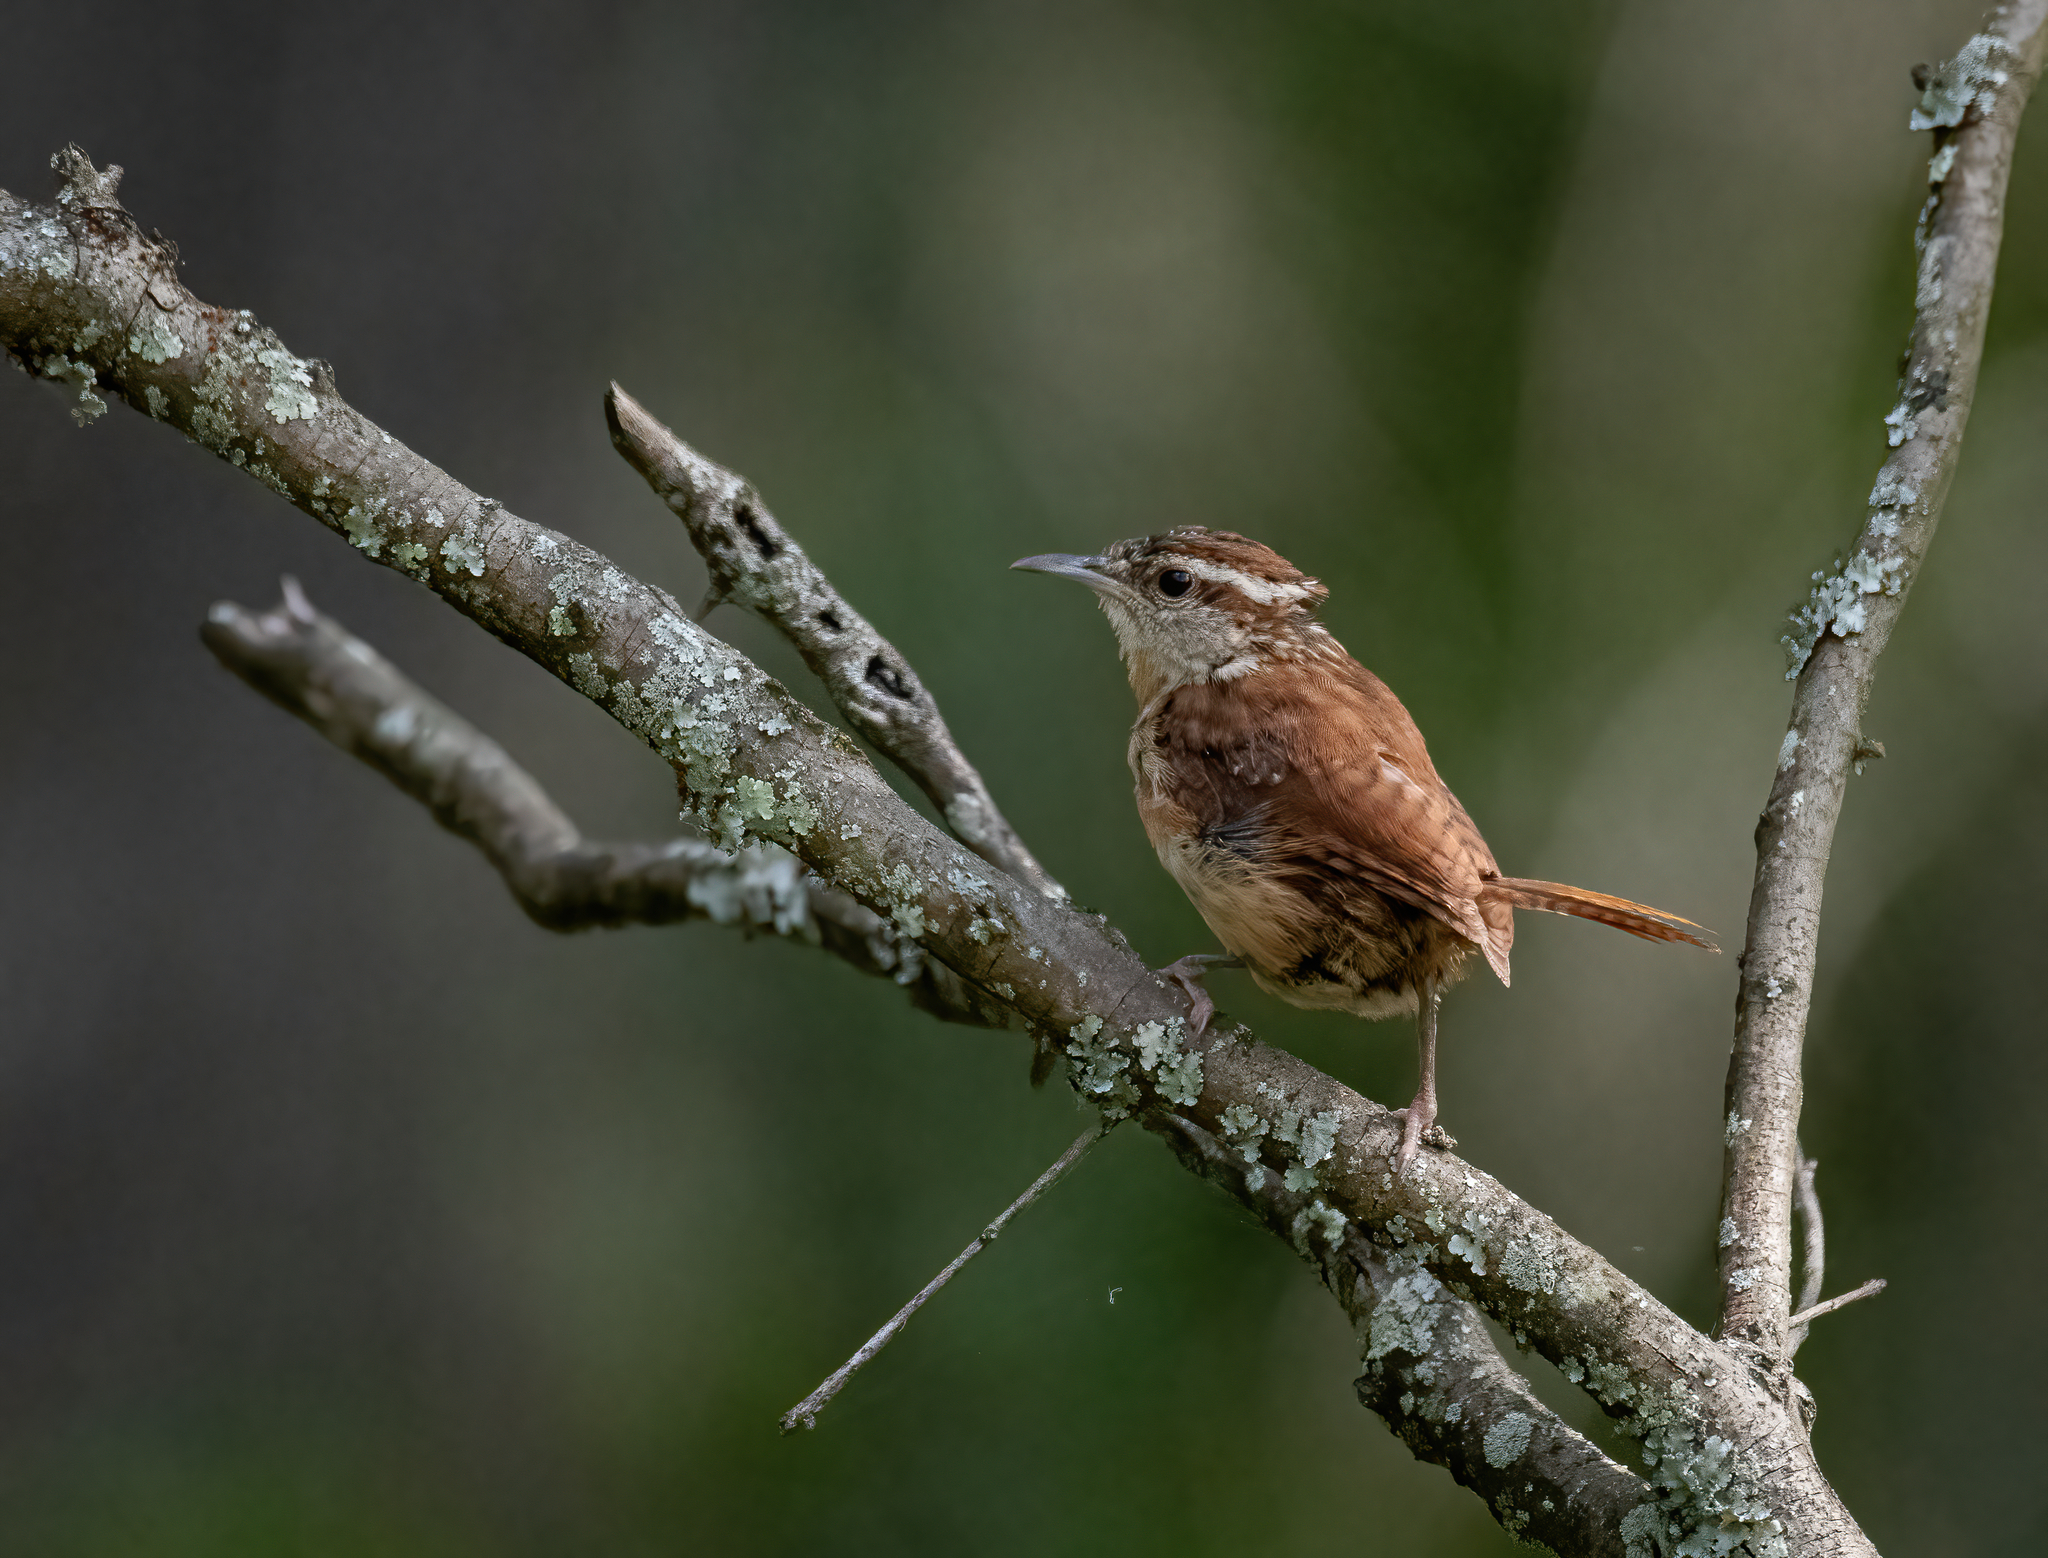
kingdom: Animalia
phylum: Chordata
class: Aves
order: Passeriformes
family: Troglodytidae
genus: Thryothorus
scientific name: Thryothorus ludovicianus
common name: Carolina wren
